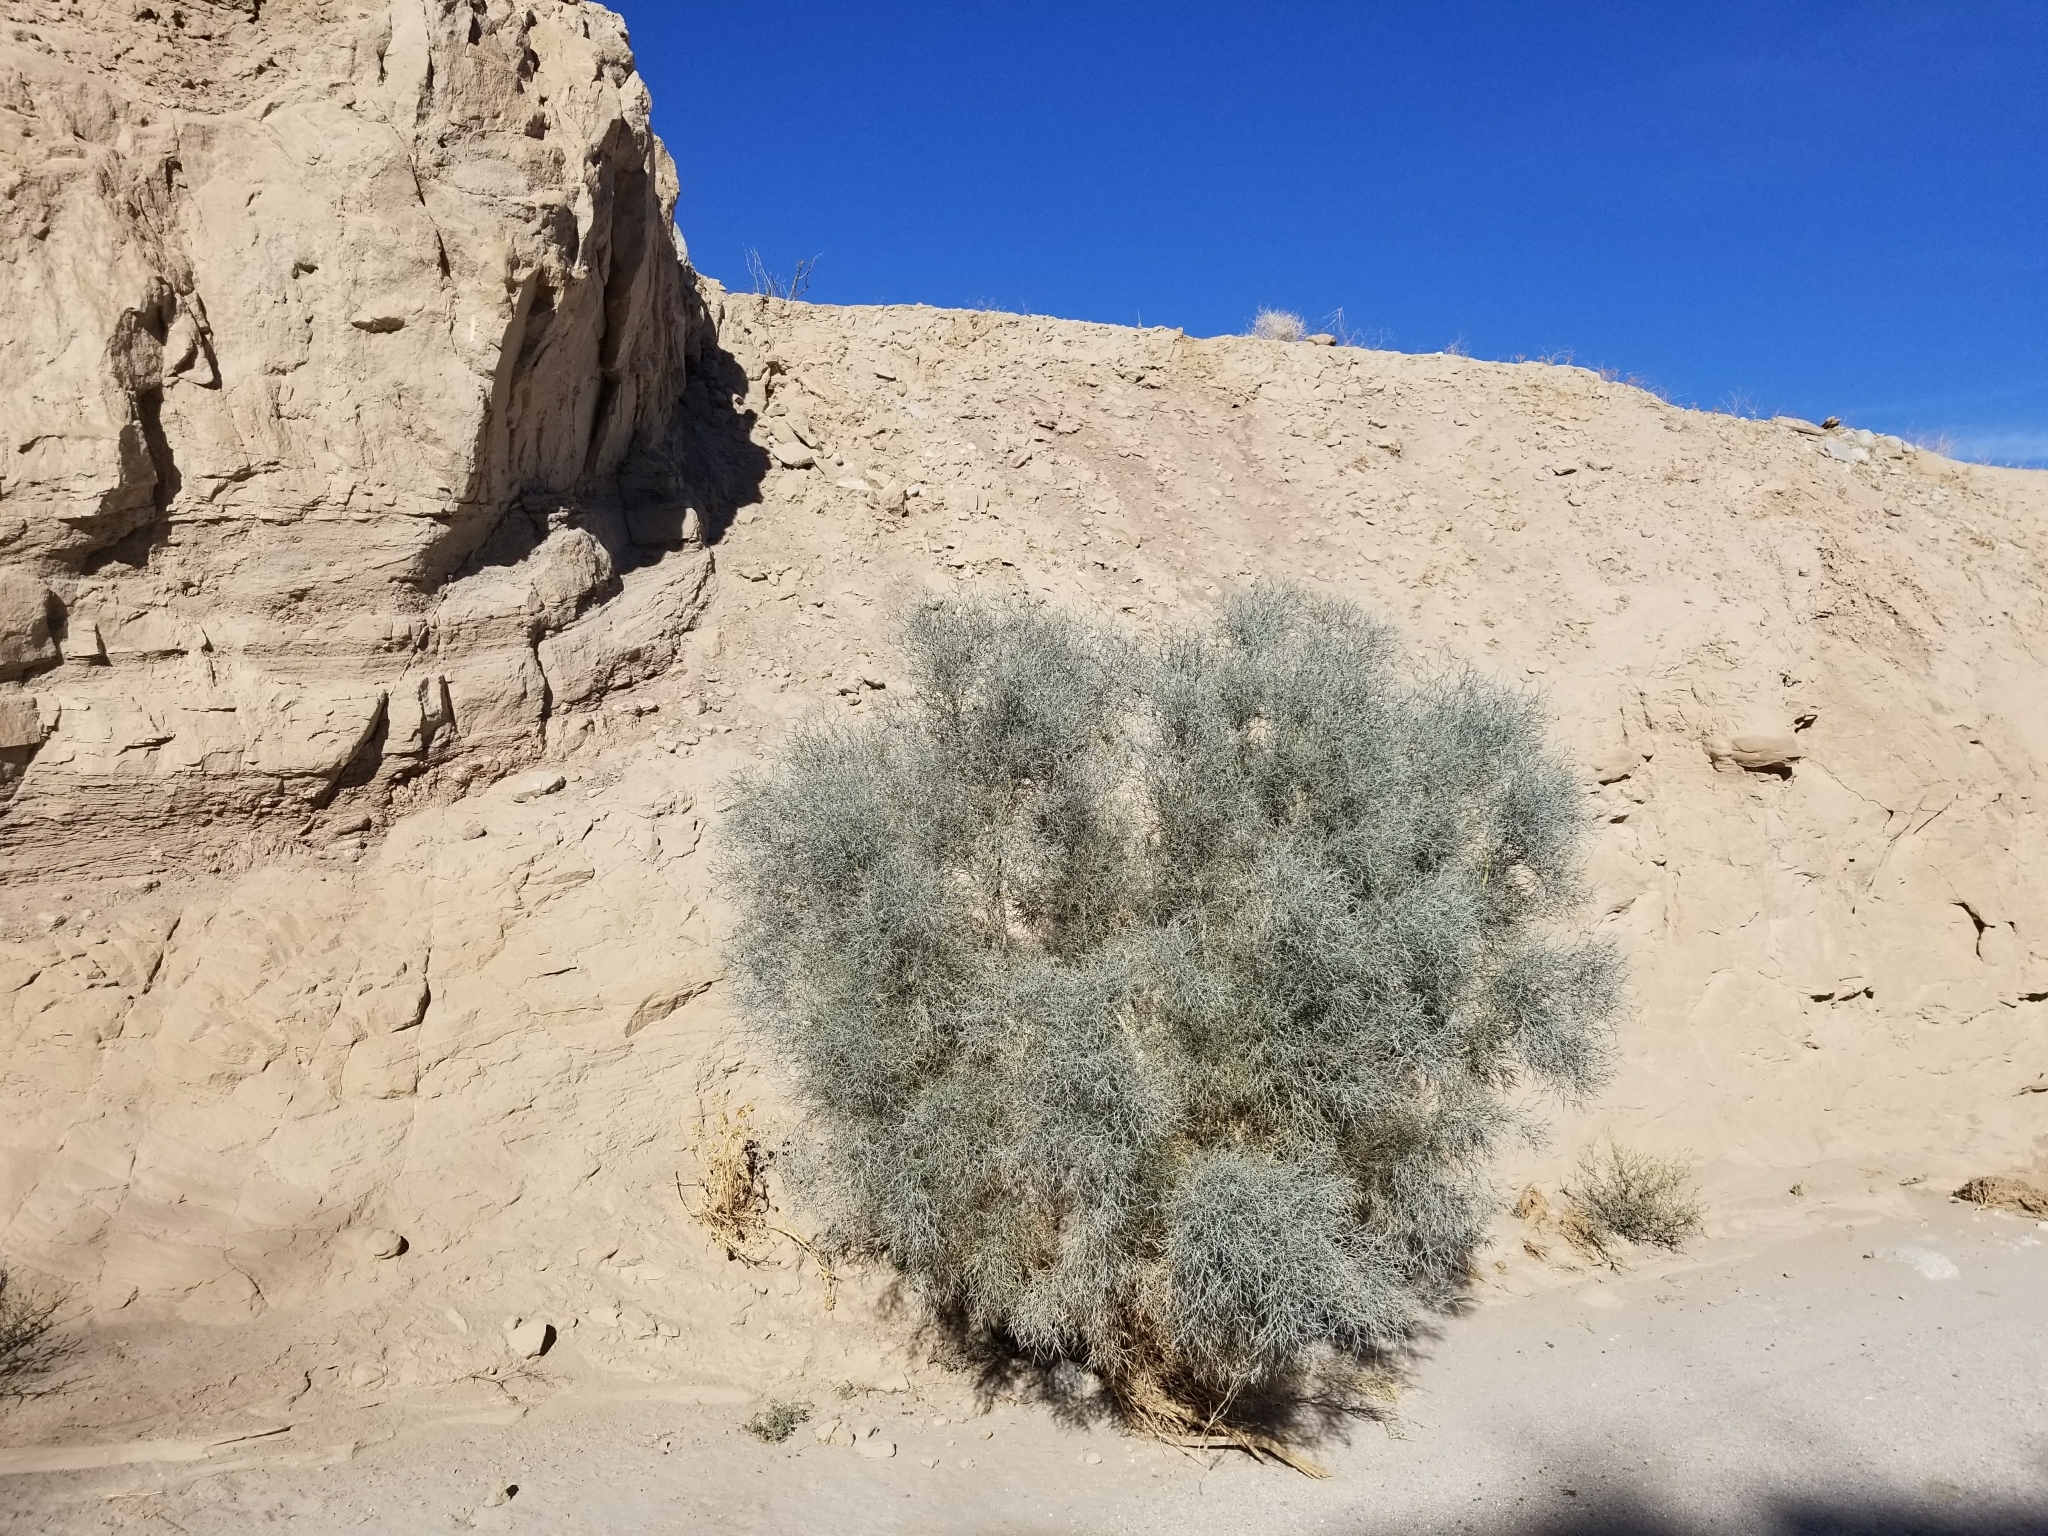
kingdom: Plantae
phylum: Tracheophyta
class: Magnoliopsida
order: Fabales
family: Fabaceae
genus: Psorothamnus
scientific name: Psorothamnus spinosus
